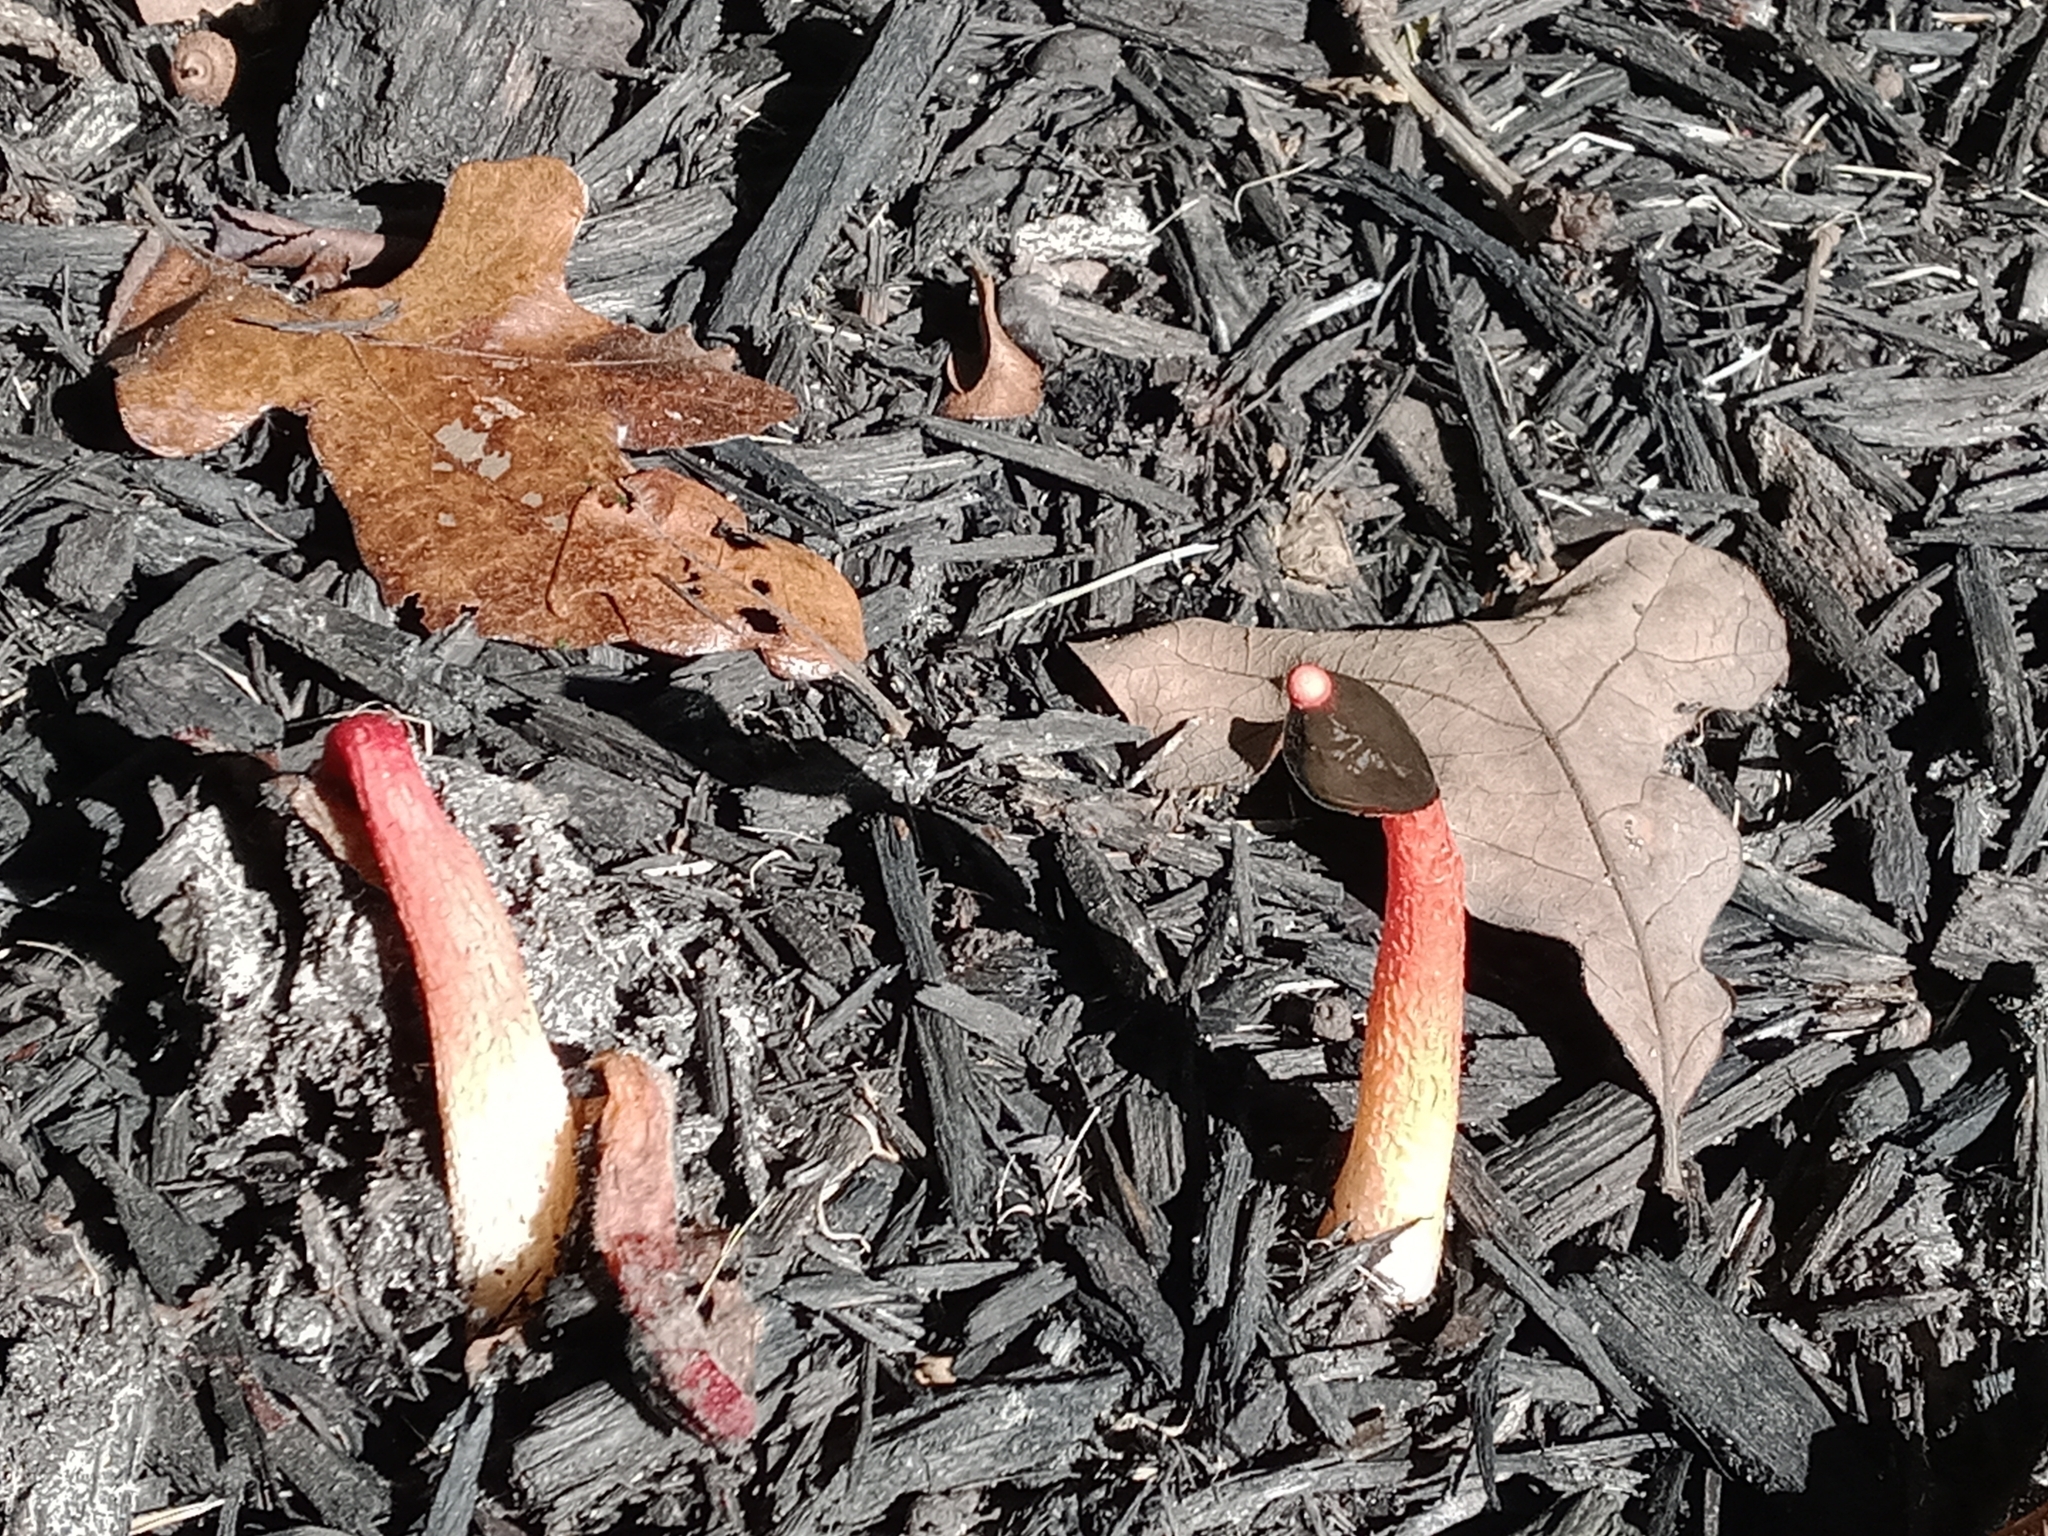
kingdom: Fungi
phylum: Basidiomycota
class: Agaricomycetes
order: Phallales
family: Phallaceae
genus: Phallus
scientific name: Phallus rugulosus
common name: Wrinkly stinkhorn
